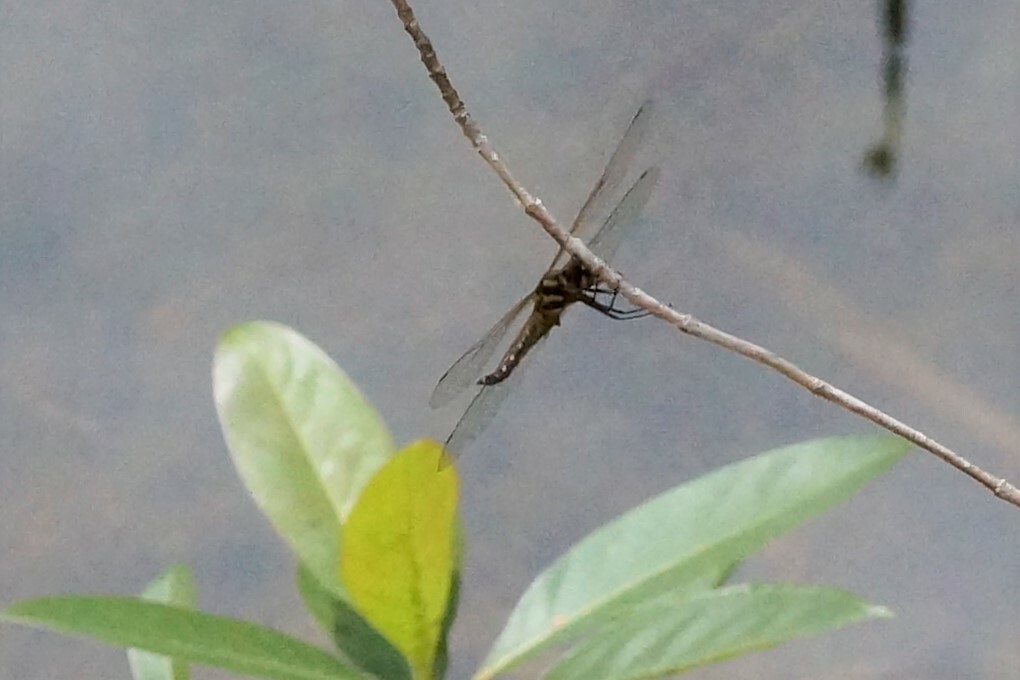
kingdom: Animalia
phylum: Arthropoda
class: Insecta
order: Odonata
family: Libellulidae
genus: Hydrobasileus
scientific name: Hydrobasileus brevistylus
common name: Water prince
